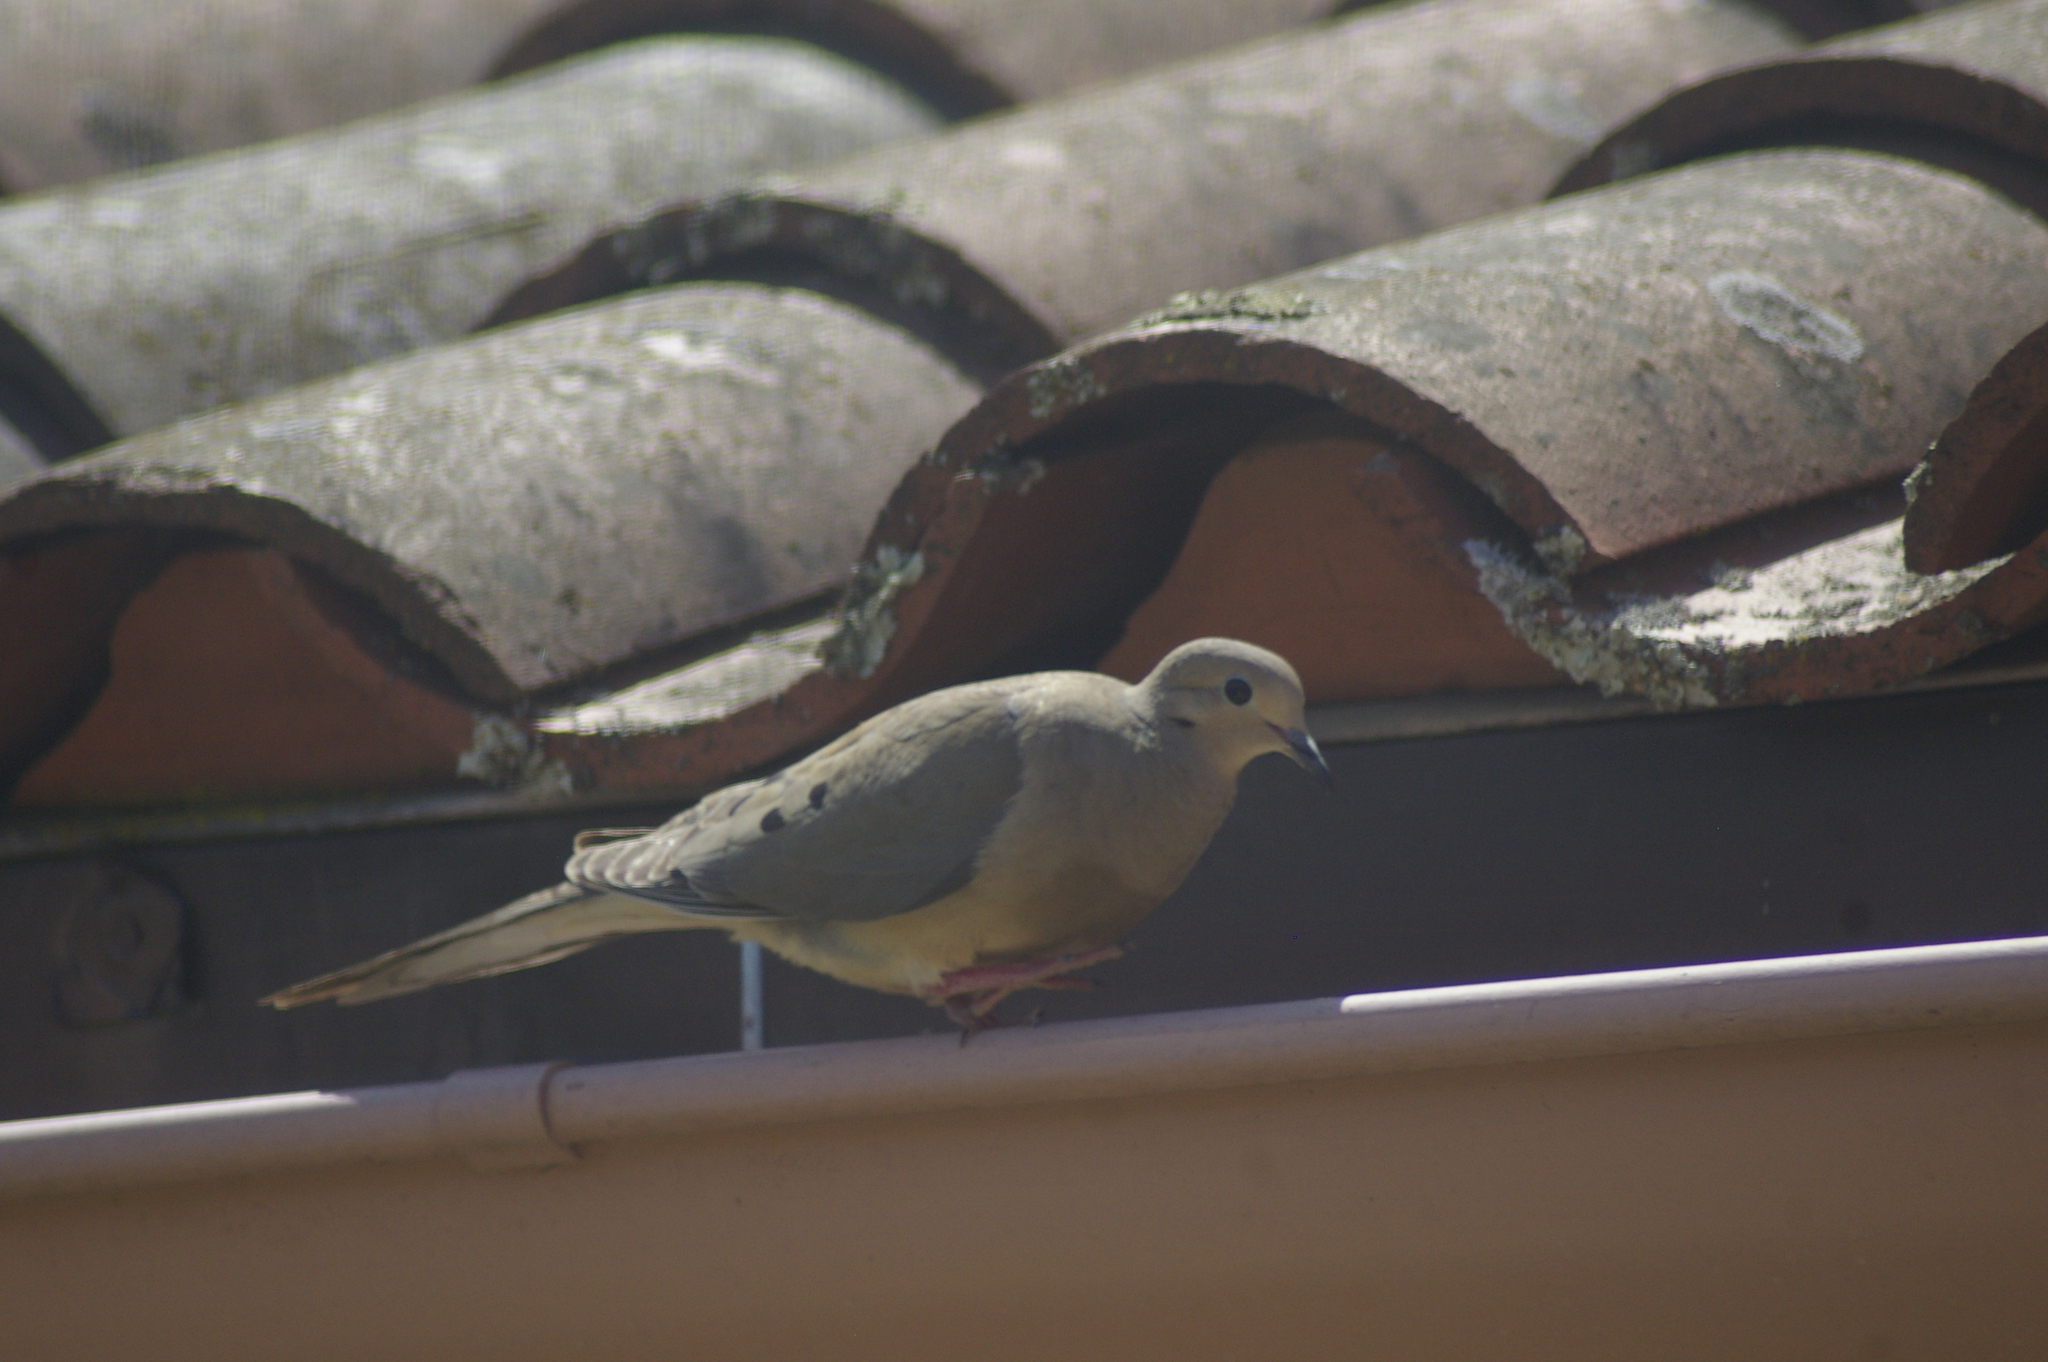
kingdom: Animalia
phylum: Chordata
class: Aves
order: Columbiformes
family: Columbidae
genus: Zenaida
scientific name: Zenaida macroura
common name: Mourning dove
